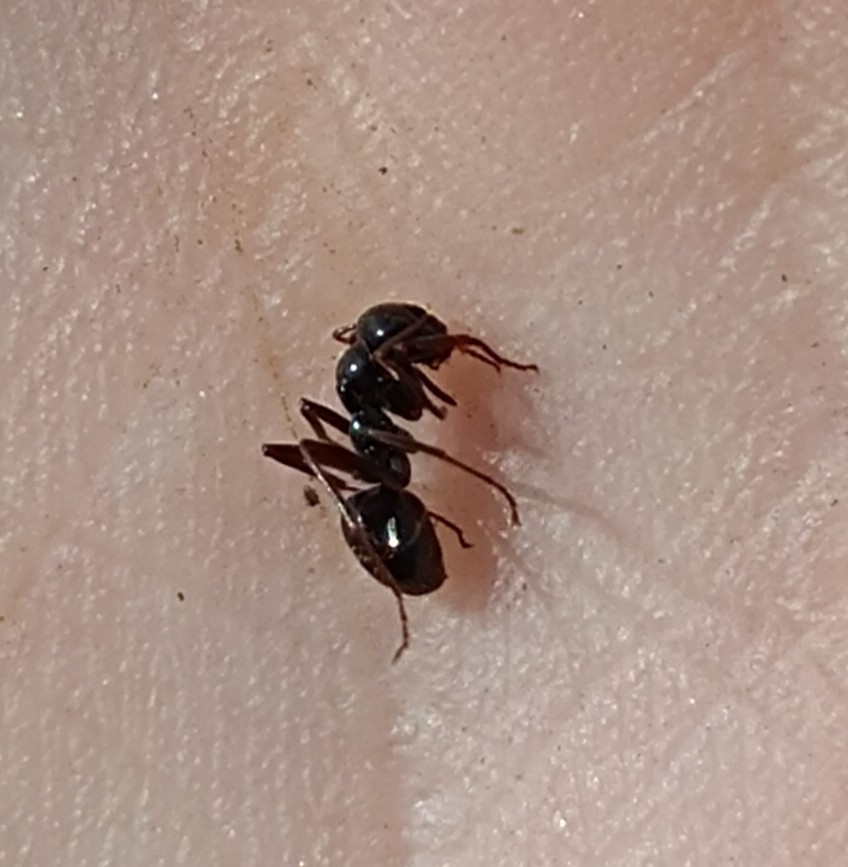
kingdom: Animalia
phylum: Arthropoda
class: Insecta
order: Hymenoptera
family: Formicidae
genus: Formica
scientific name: Formica gagates
